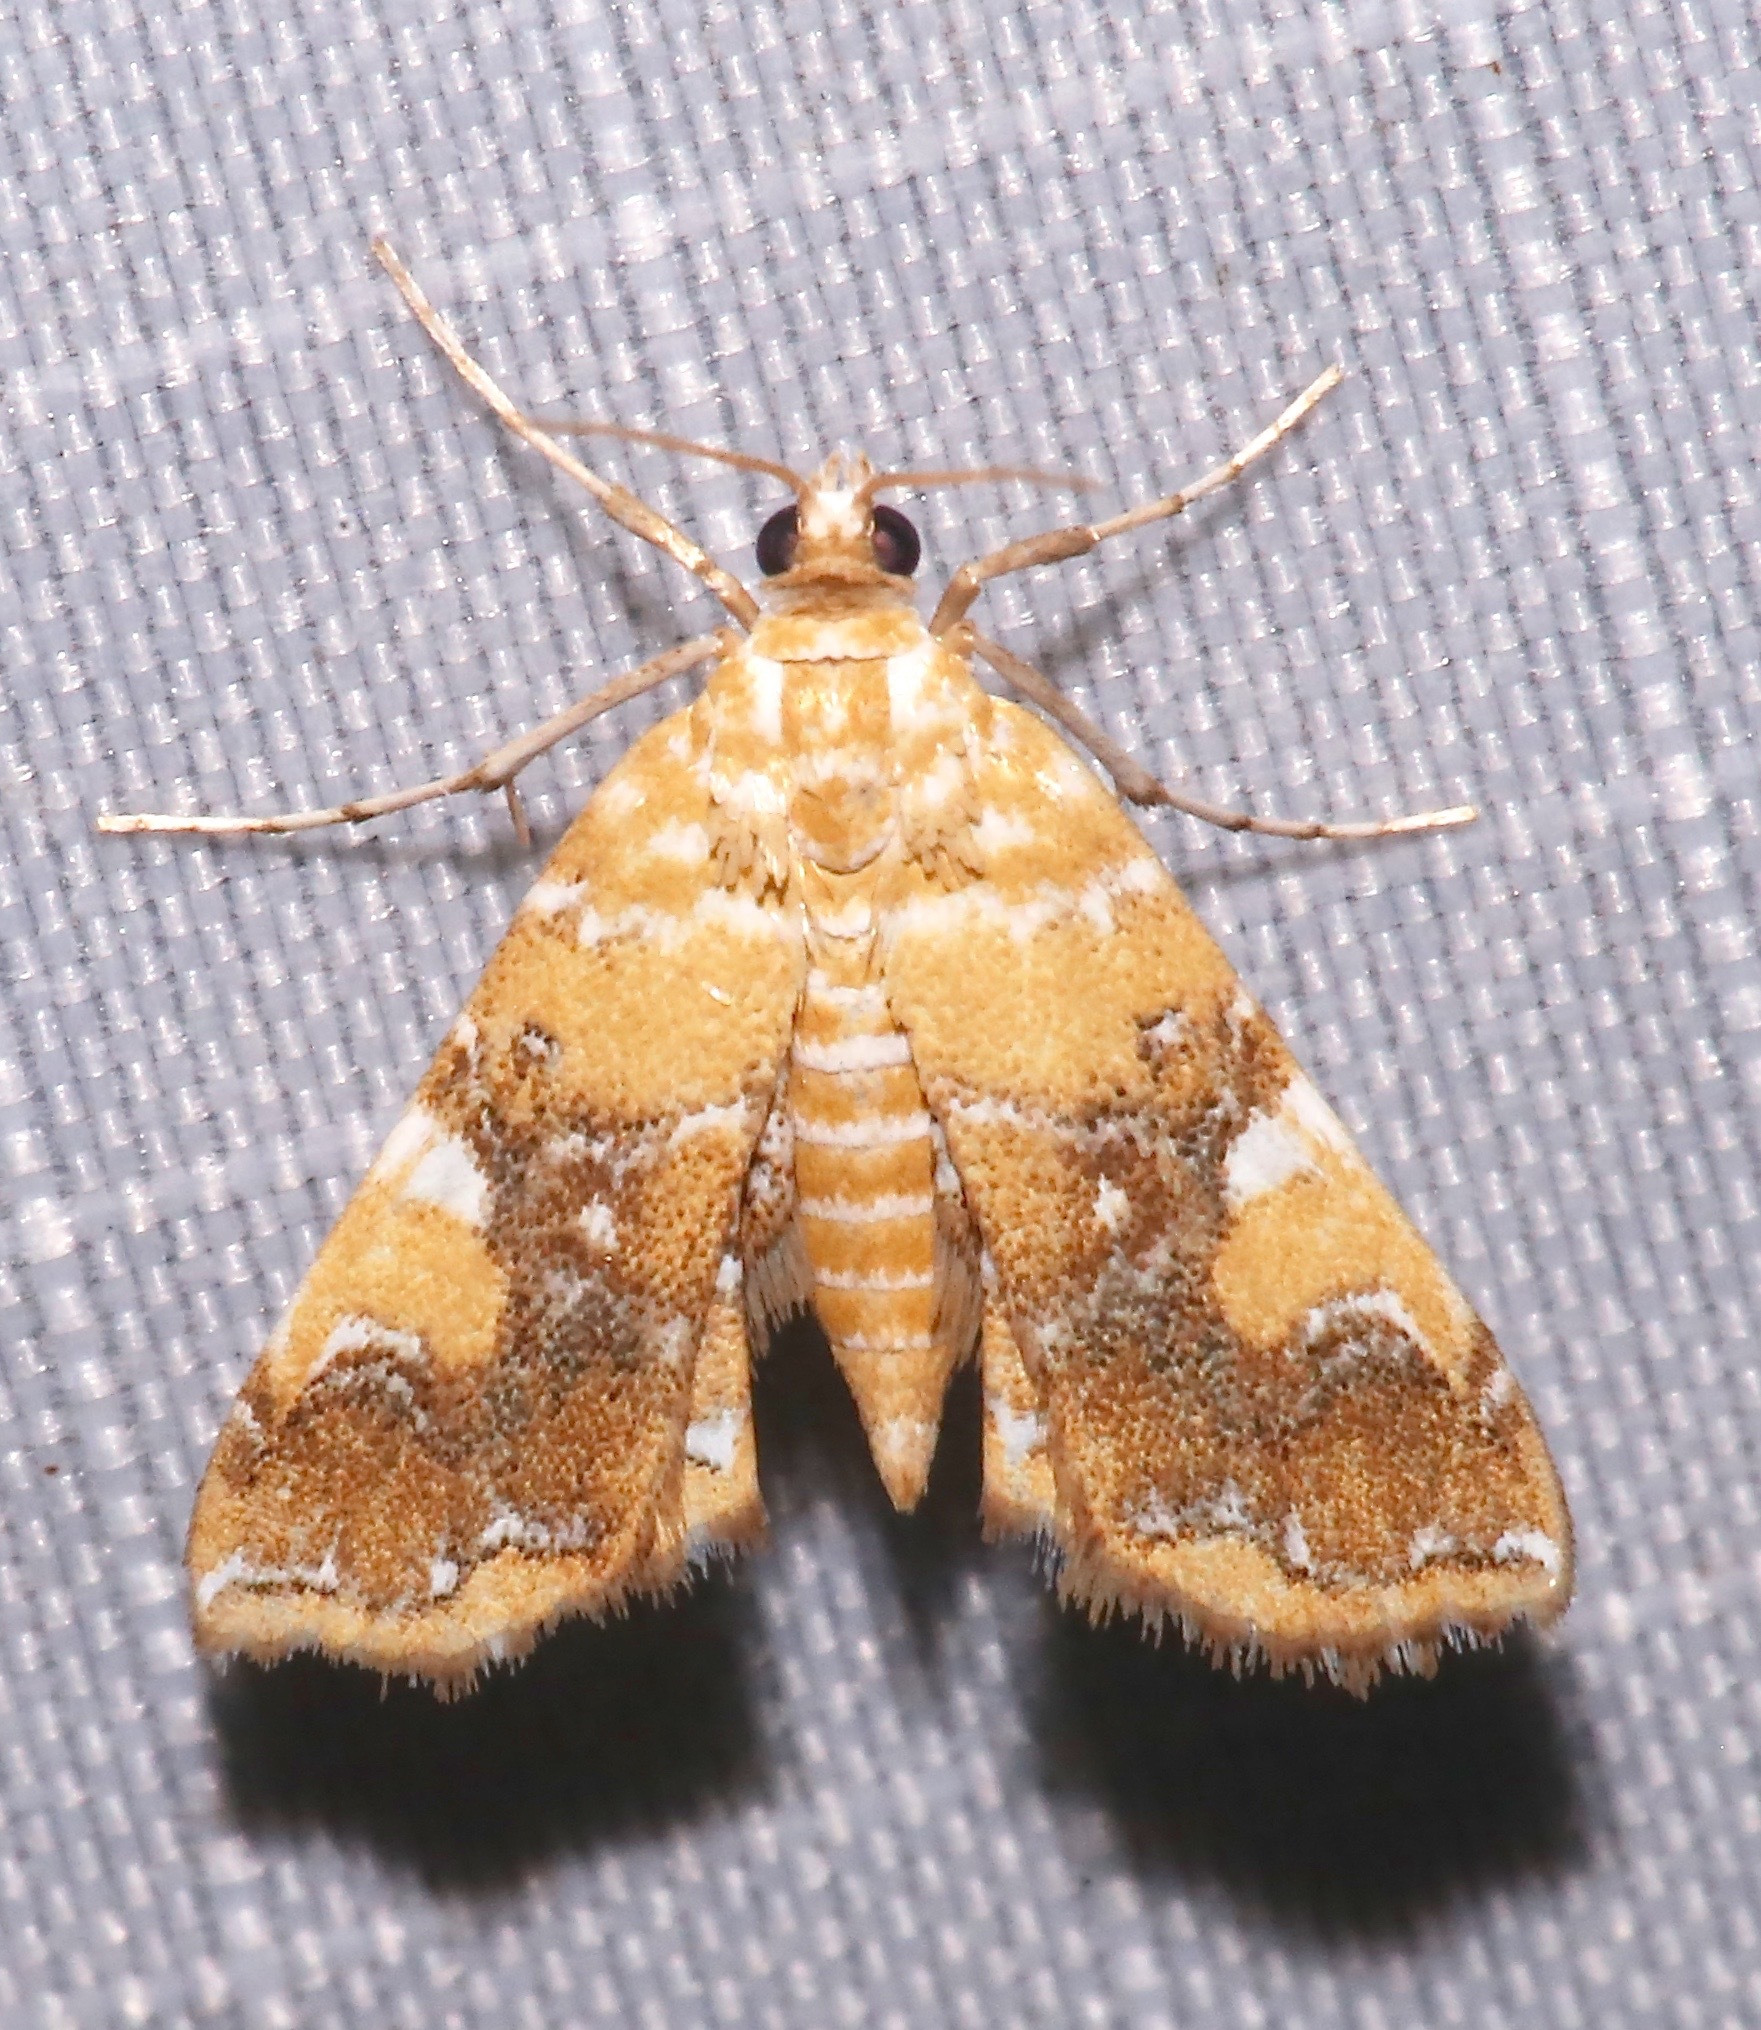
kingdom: Animalia
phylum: Arthropoda
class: Insecta
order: Lepidoptera
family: Crambidae
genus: Elophila
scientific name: Elophila nebulosalis
